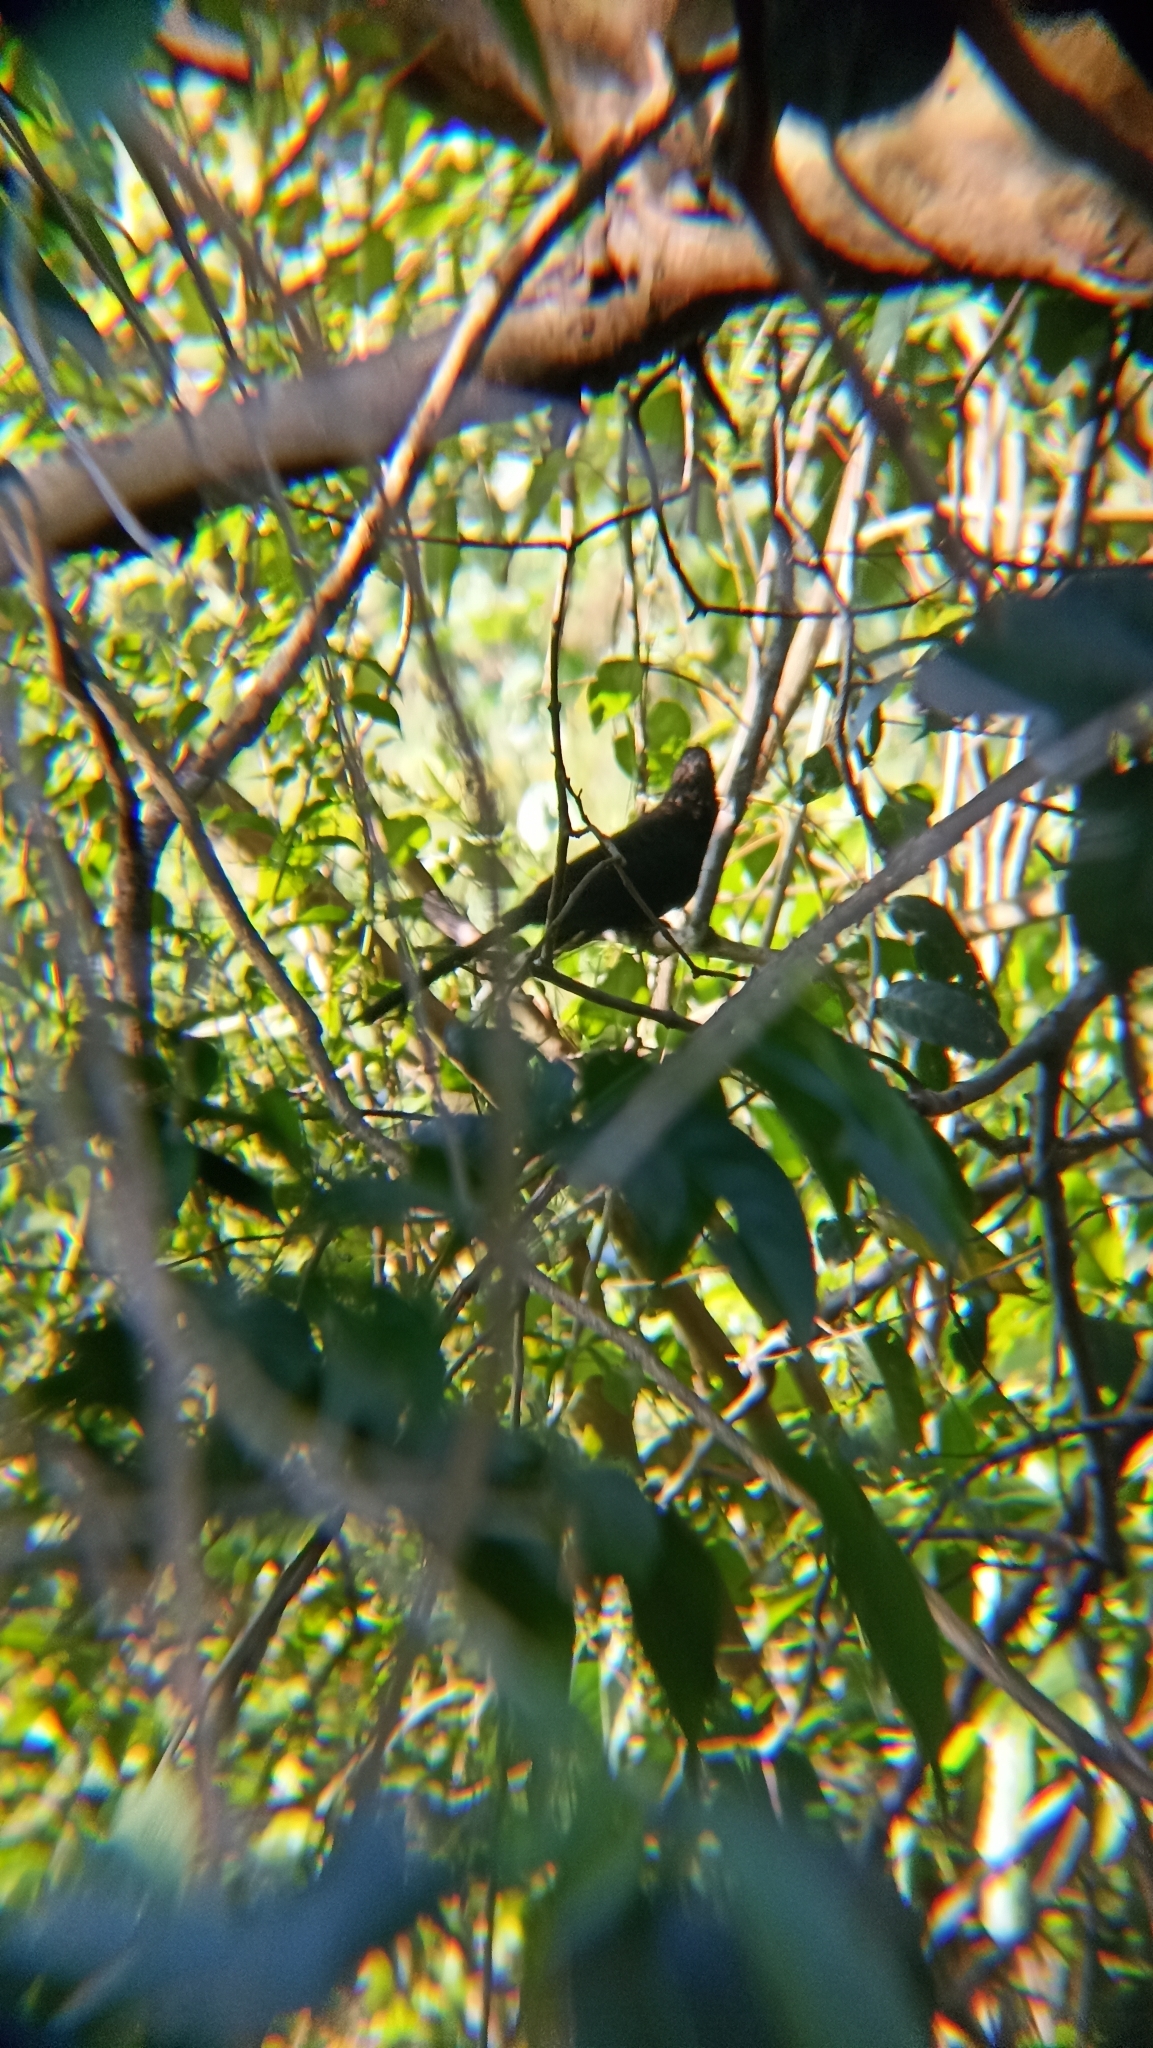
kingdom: Animalia
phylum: Chordata
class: Aves
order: Cuculiformes
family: Cuculidae
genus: Crotophaga
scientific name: Crotophaga ani
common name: Smooth-billed ani
